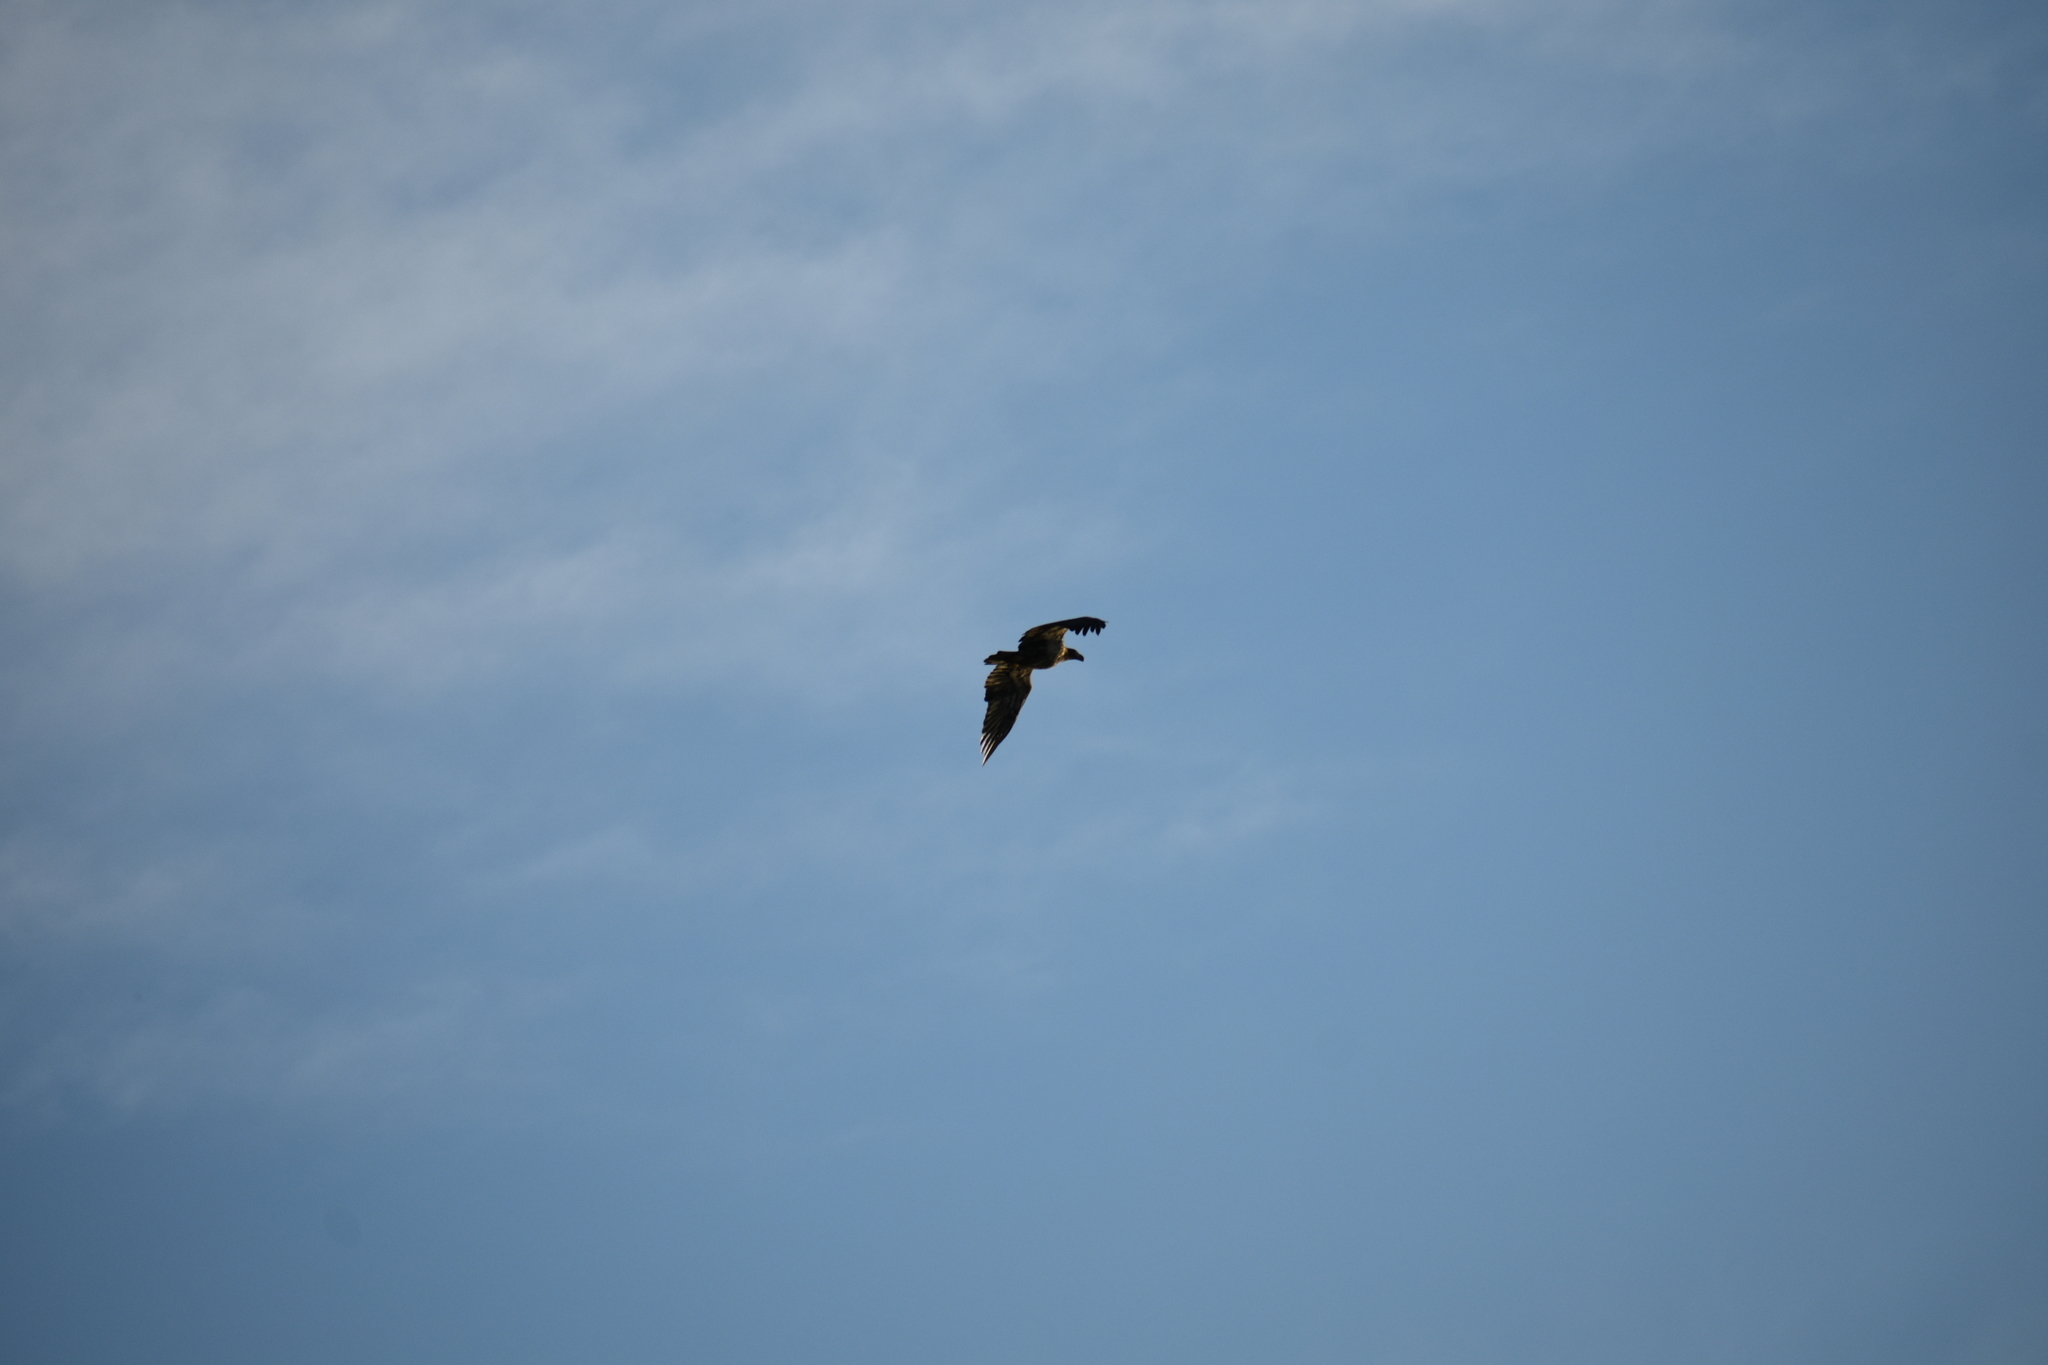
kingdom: Animalia
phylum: Chordata
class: Aves
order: Accipitriformes
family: Accipitridae
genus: Haliaeetus
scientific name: Haliaeetus leucocephalus
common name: Bald eagle
